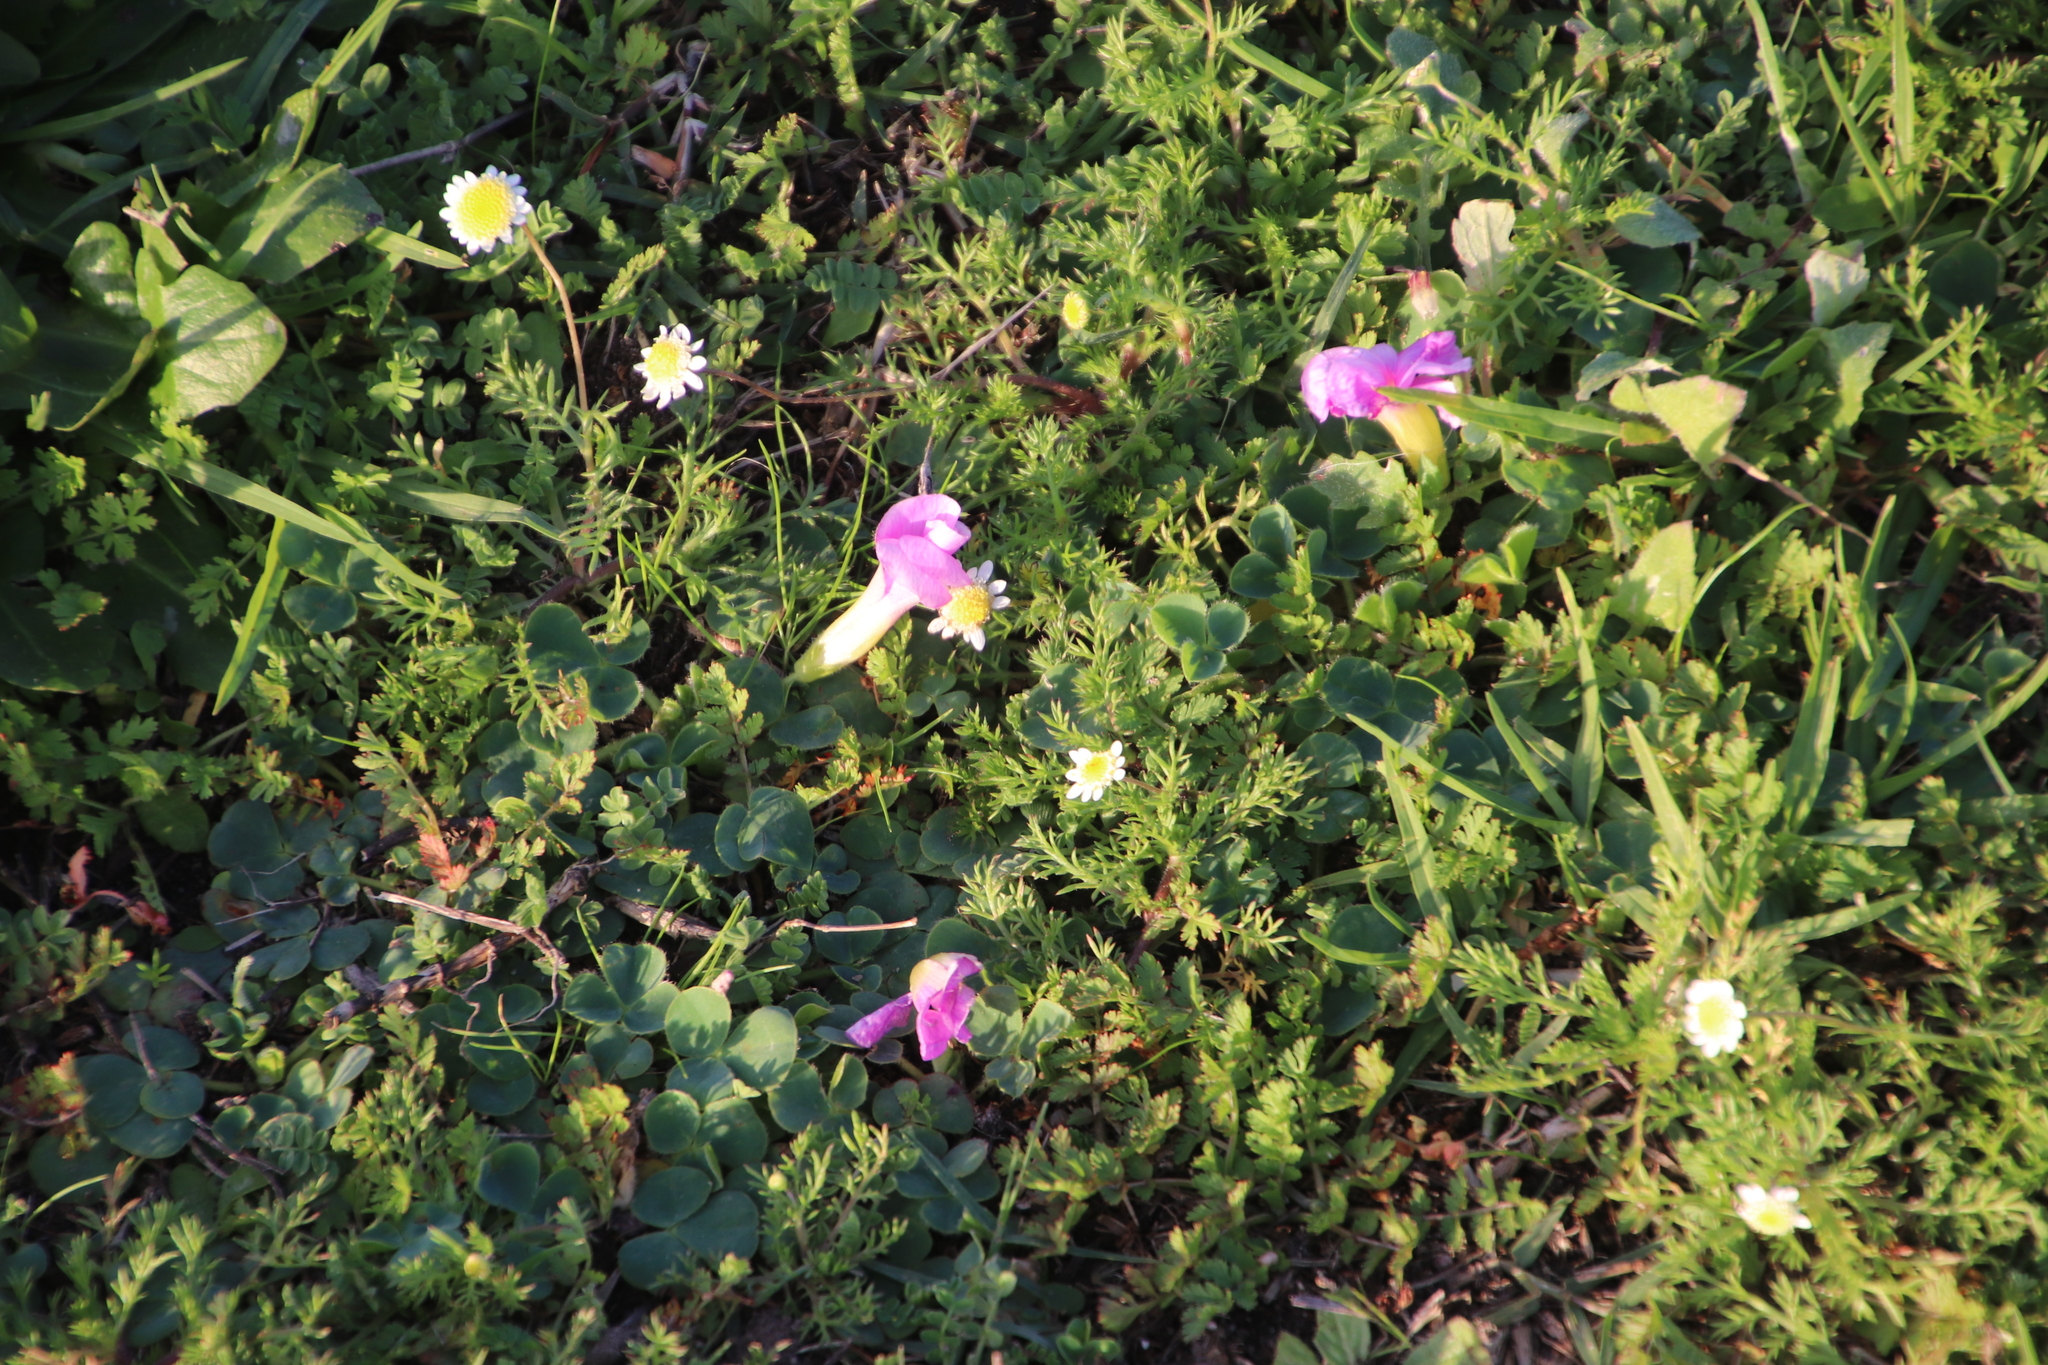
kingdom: Plantae
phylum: Tracheophyta
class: Magnoliopsida
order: Oxalidales
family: Oxalidaceae
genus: Oxalis
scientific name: Oxalis purpurea
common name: Purple woodsorrel
